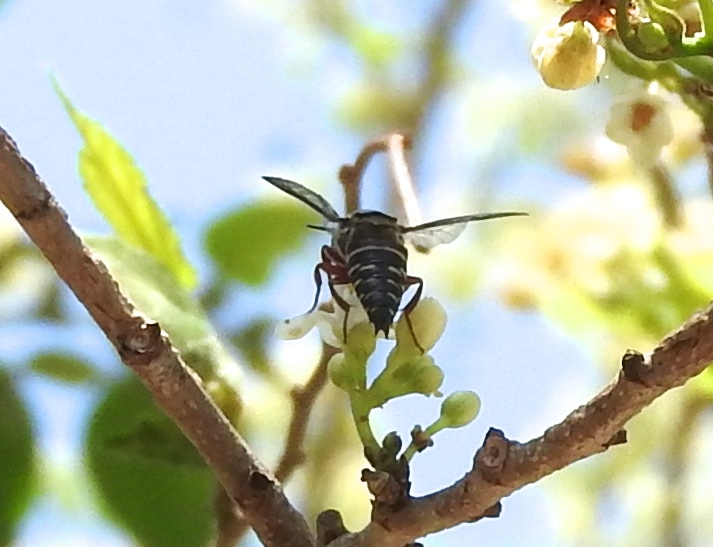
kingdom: Animalia
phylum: Arthropoda
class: Insecta
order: Hymenoptera
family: Megachilidae
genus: Coelioxys
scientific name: Coelioxys
